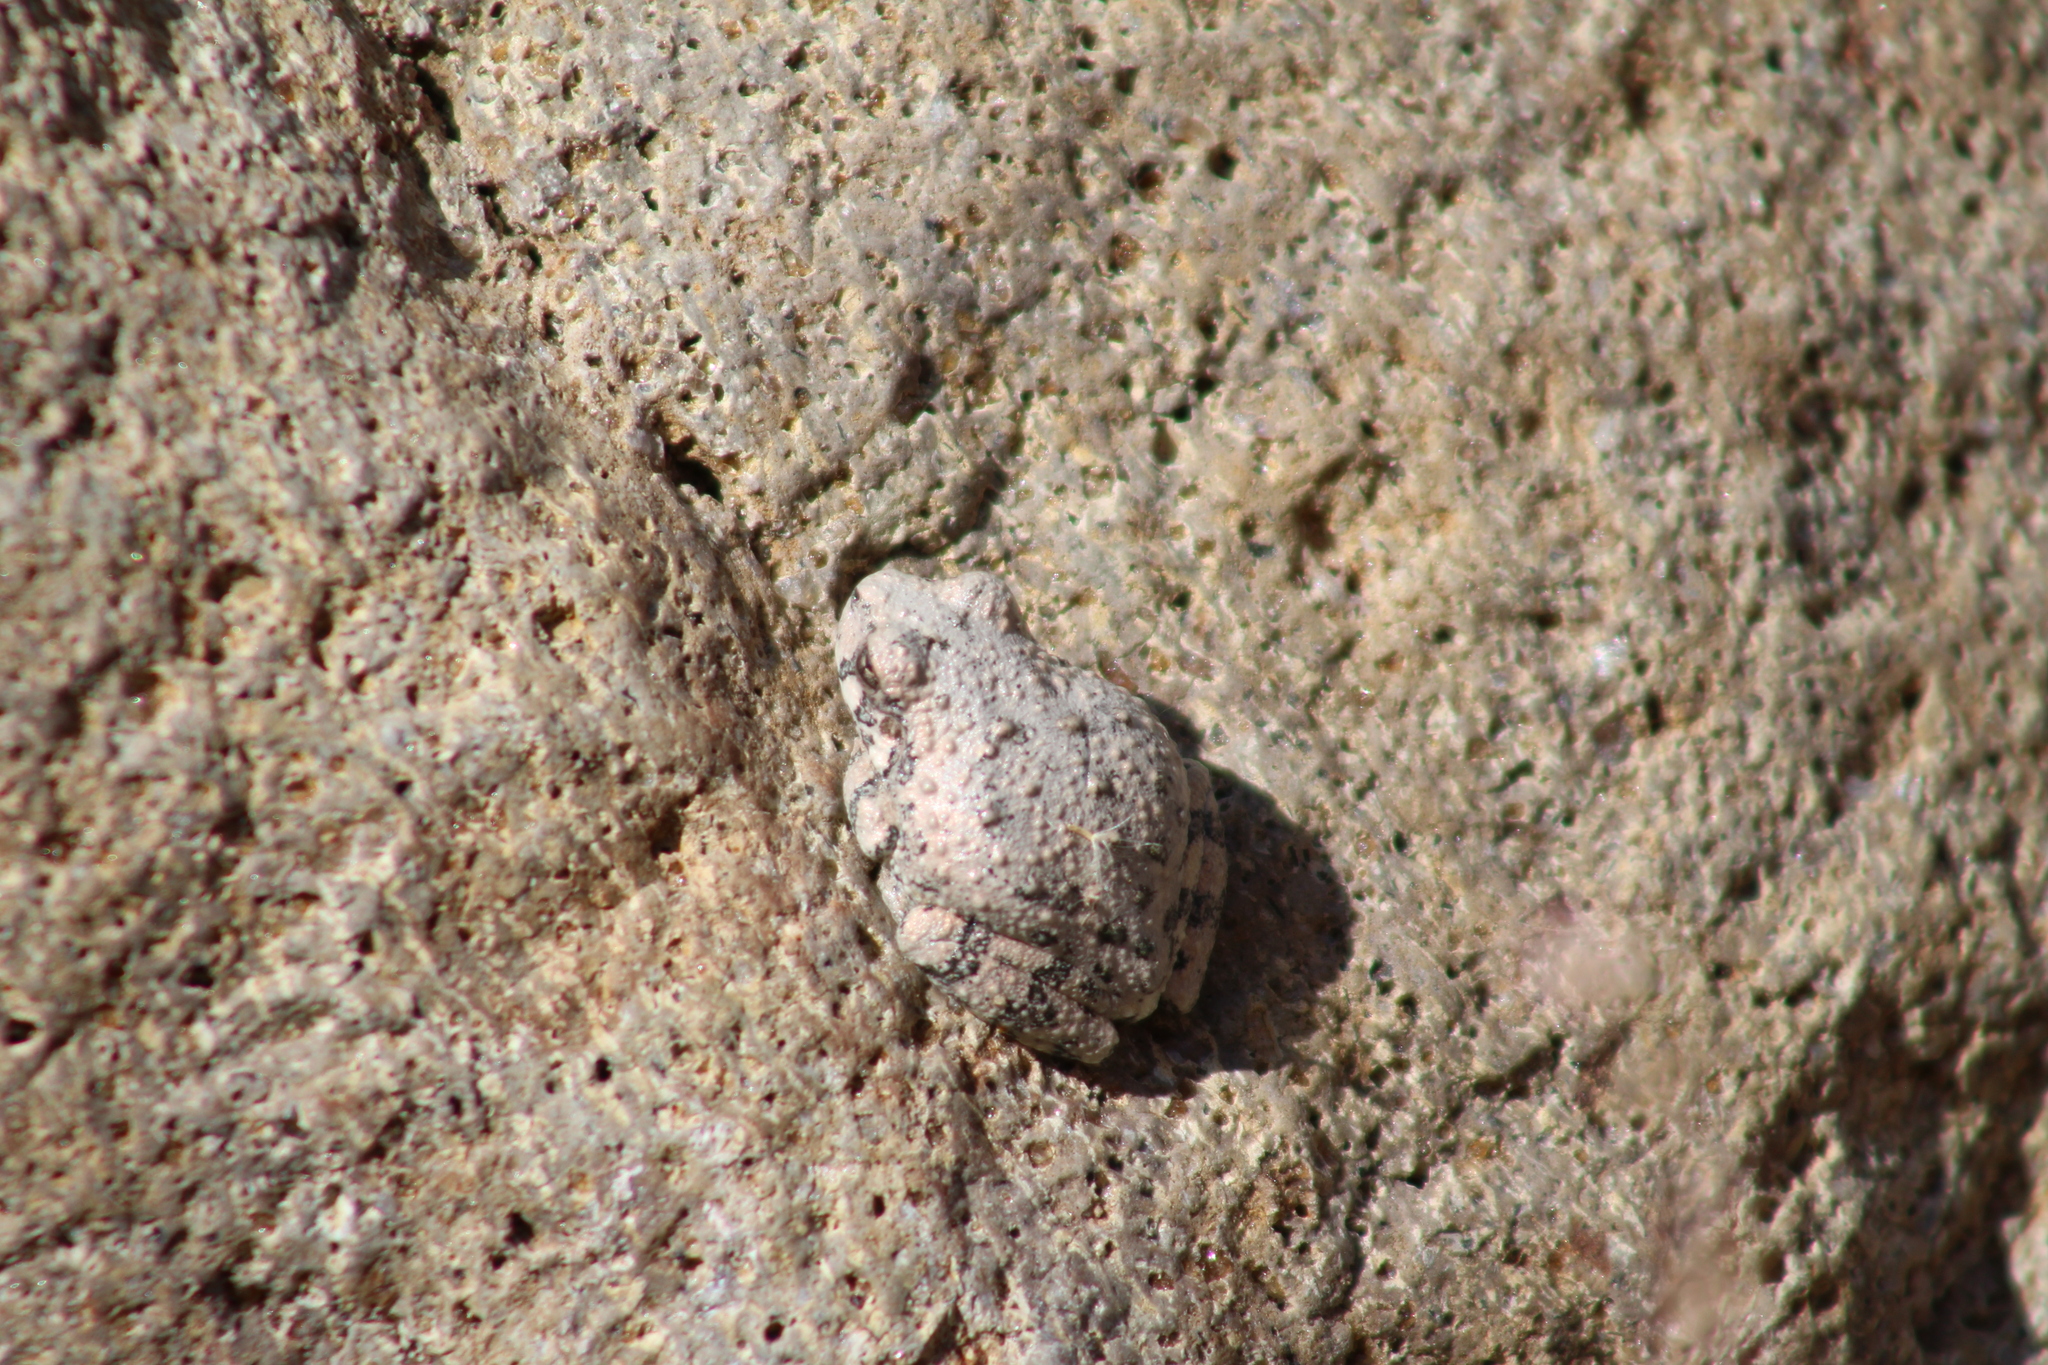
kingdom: Animalia
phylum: Chordata
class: Amphibia
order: Anura
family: Hylidae
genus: Dryophytes
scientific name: Dryophytes arenicolor
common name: Canyon treefrog
